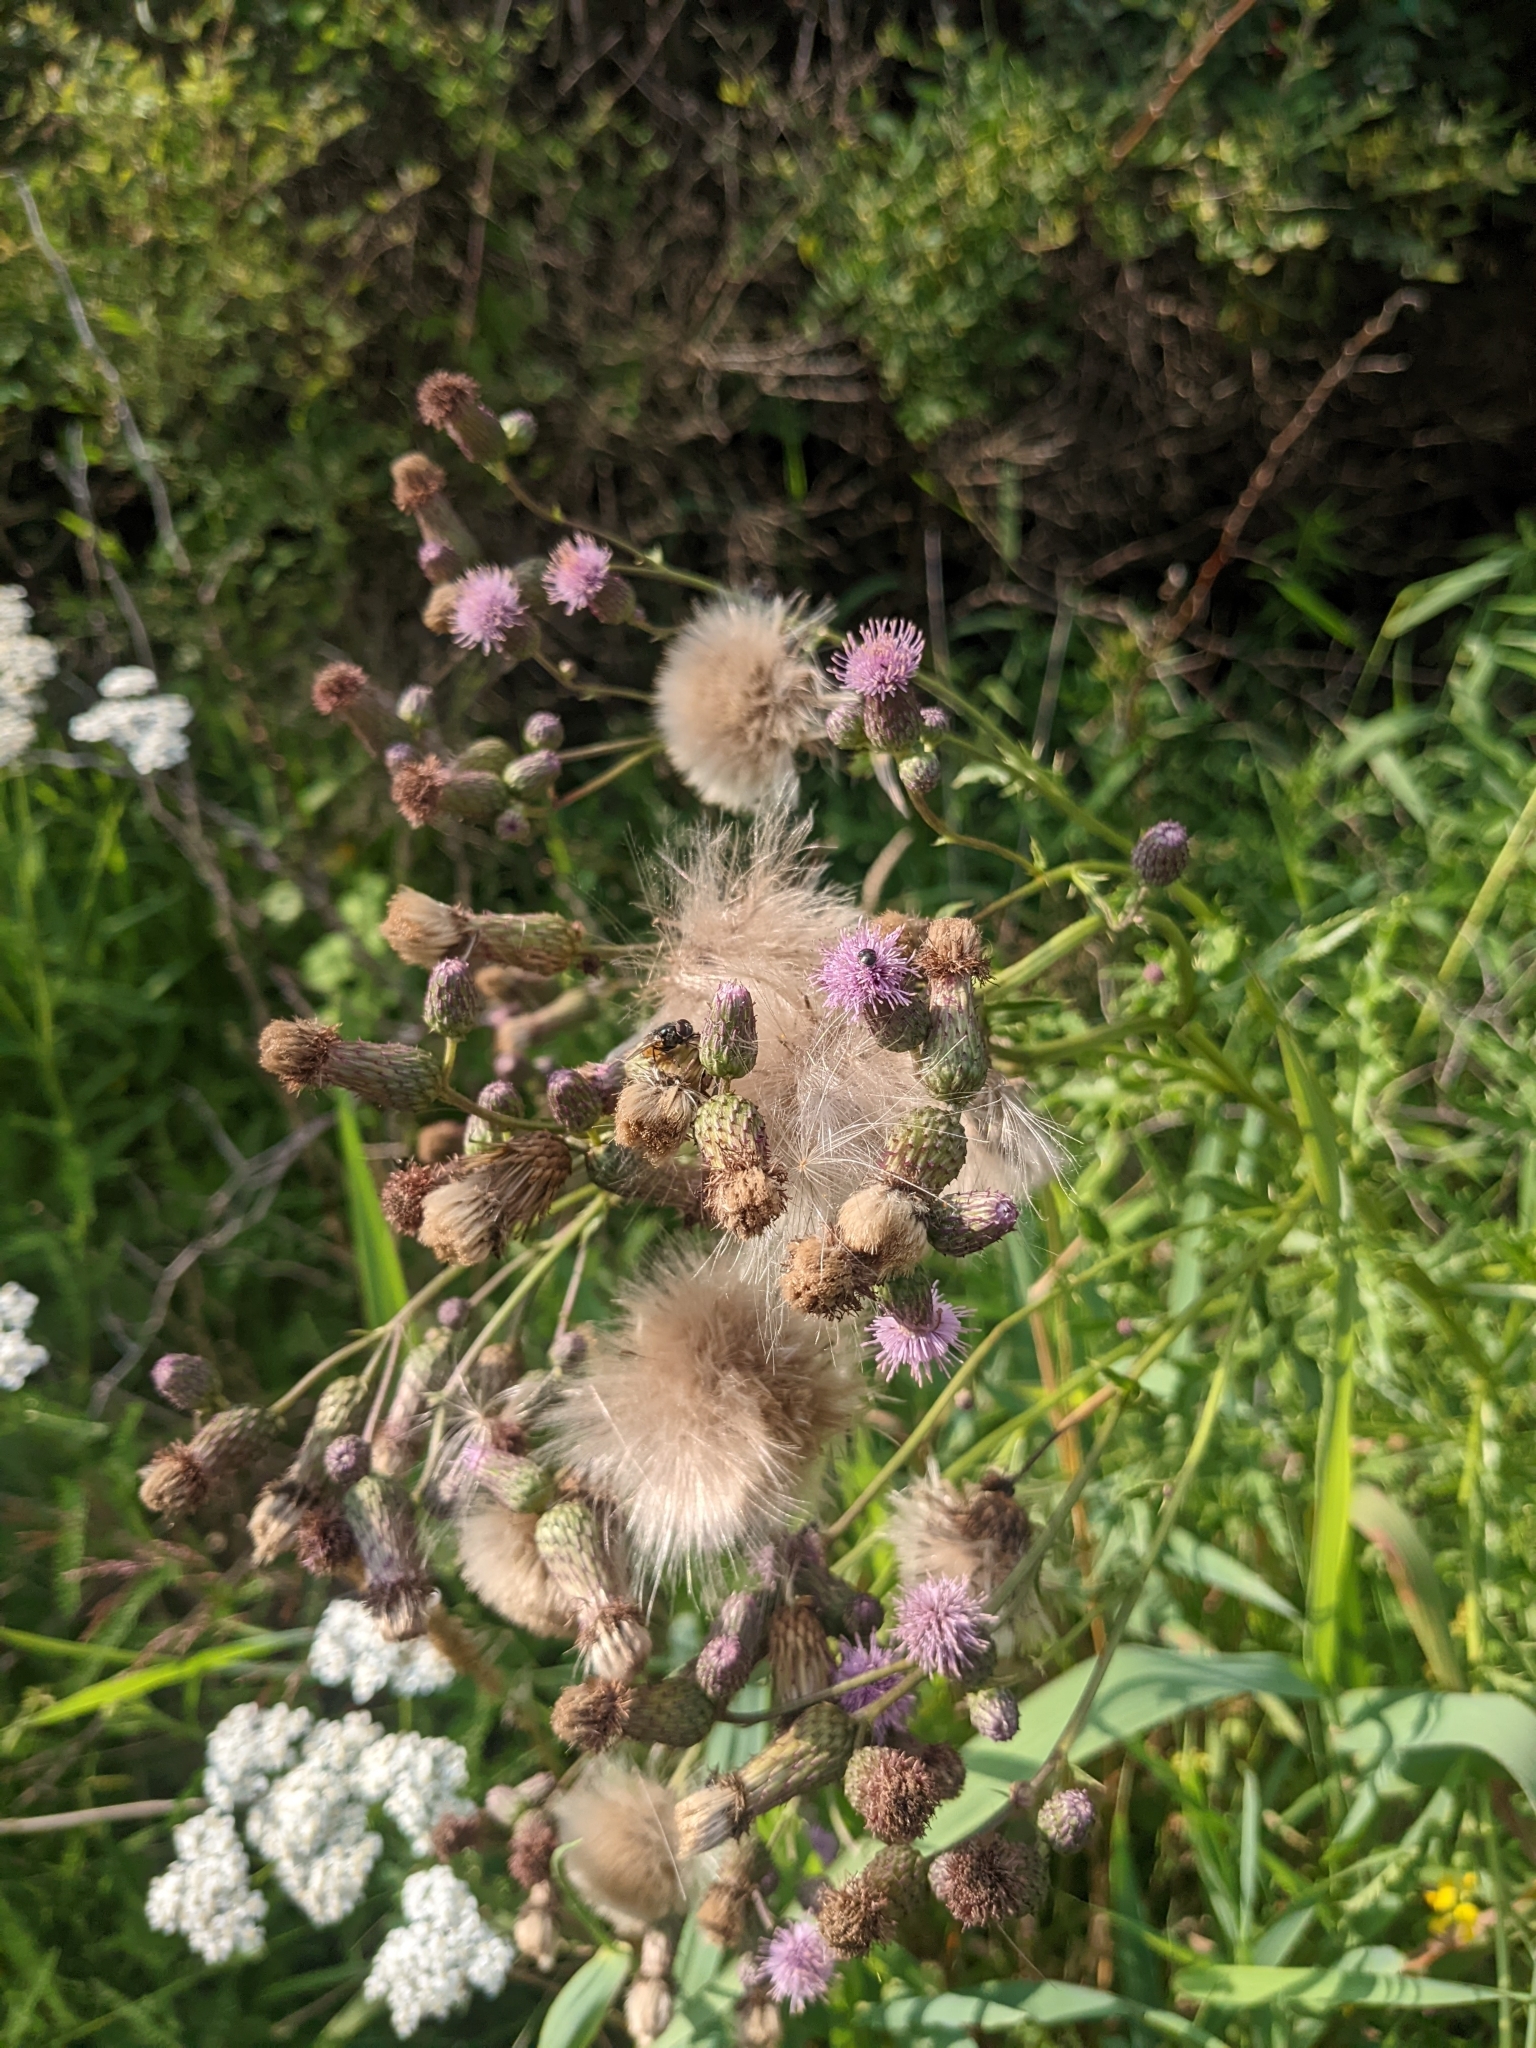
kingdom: Plantae
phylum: Tracheophyta
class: Magnoliopsida
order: Asterales
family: Asteraceae
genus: Cirsium
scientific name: Cirsium arvense
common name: Creeping thistle
